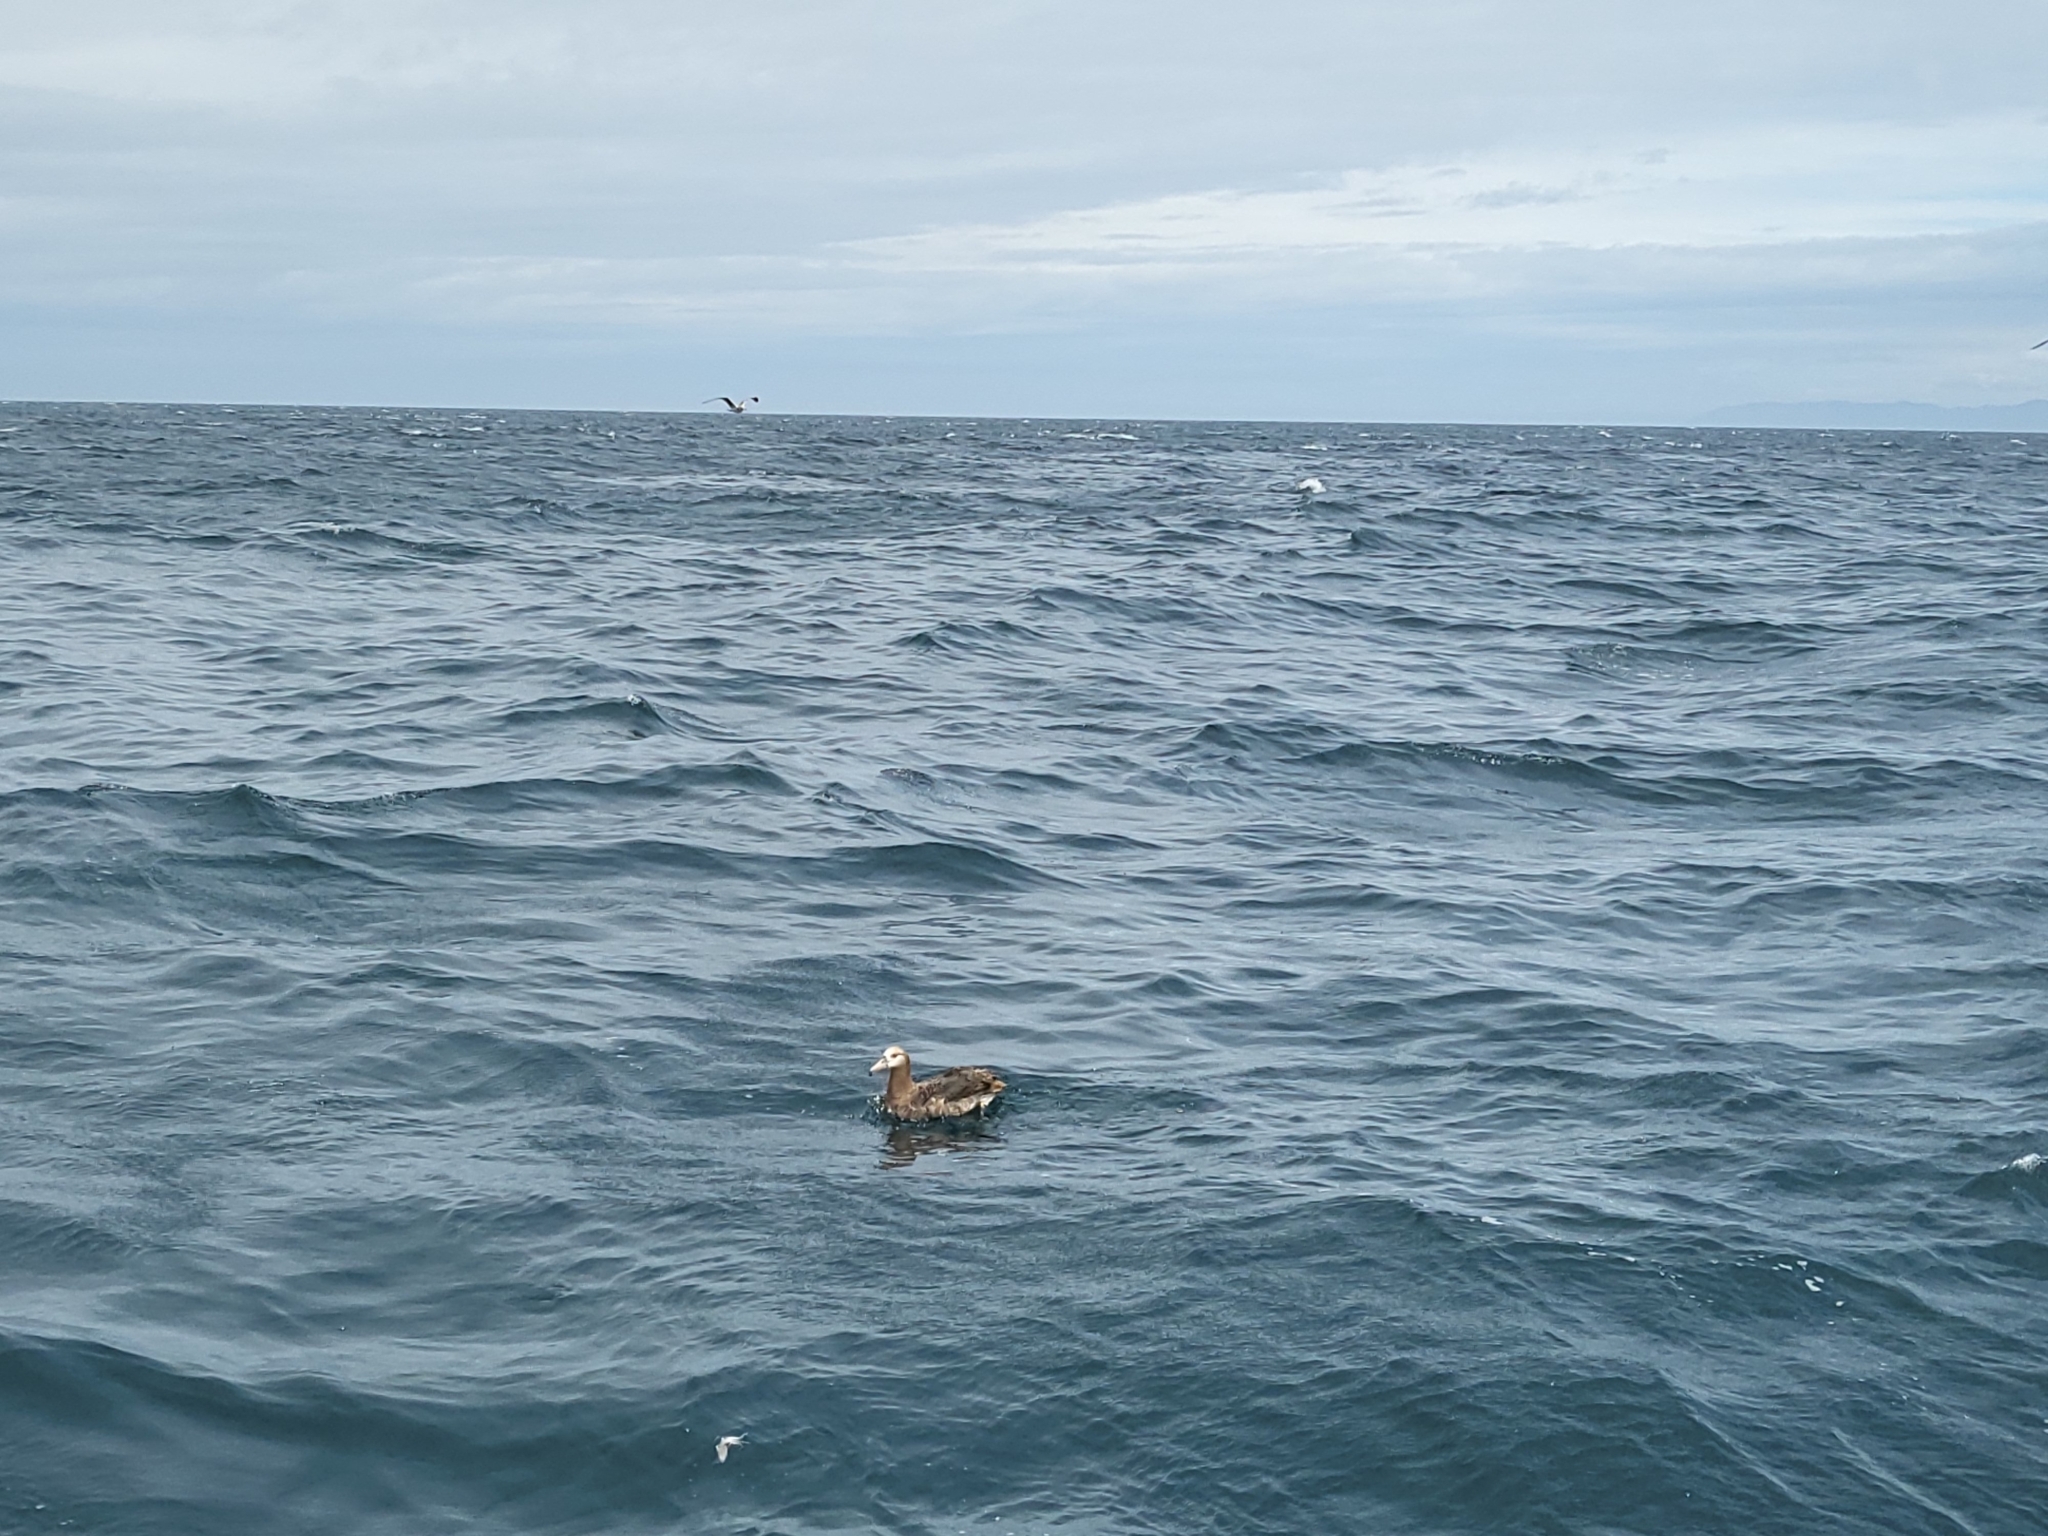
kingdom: Animalia
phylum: Chordata
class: Aves
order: Procellariiformes
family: Diomedeidae
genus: Phoebastria
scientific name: Phoebastria nigripes
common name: Black-footed albatross
